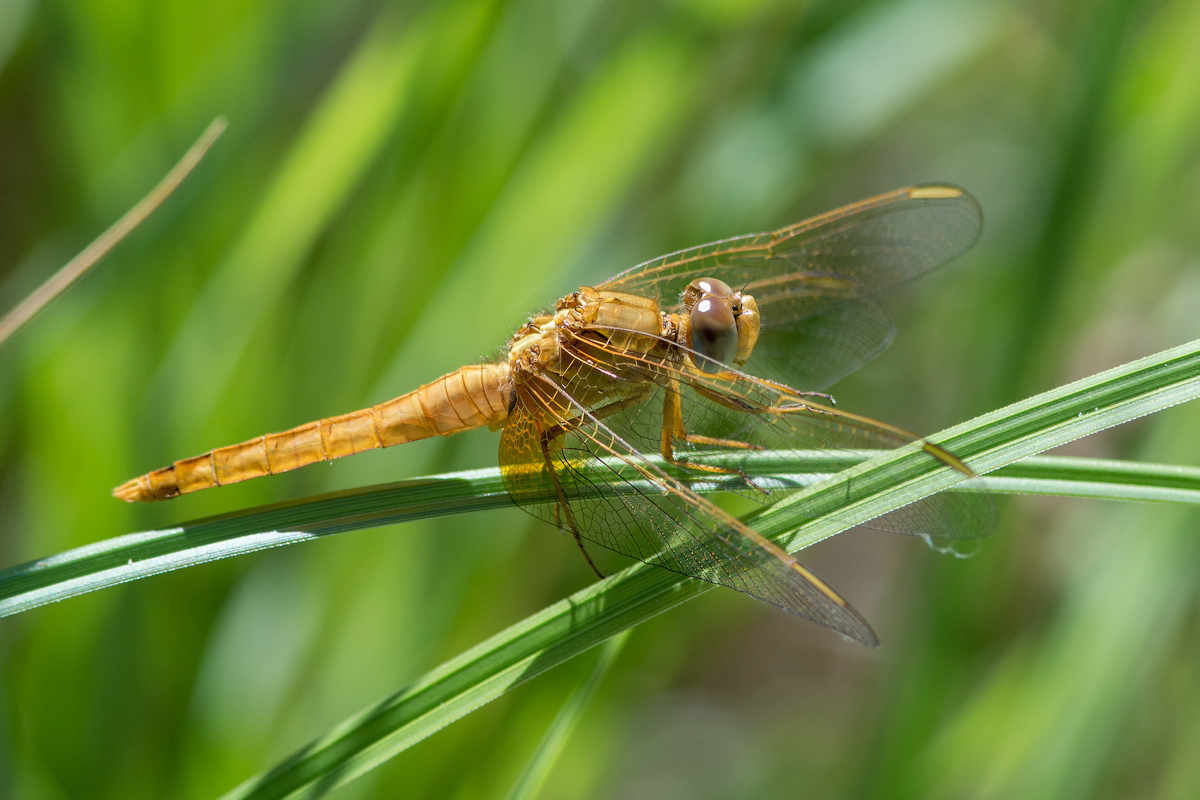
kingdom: Animalia
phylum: Arthropoda
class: Insecta
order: Odonata
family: Libellulidae
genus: Crocothemis
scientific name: Crocothemis erythraea
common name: Scarlet dragonfly
